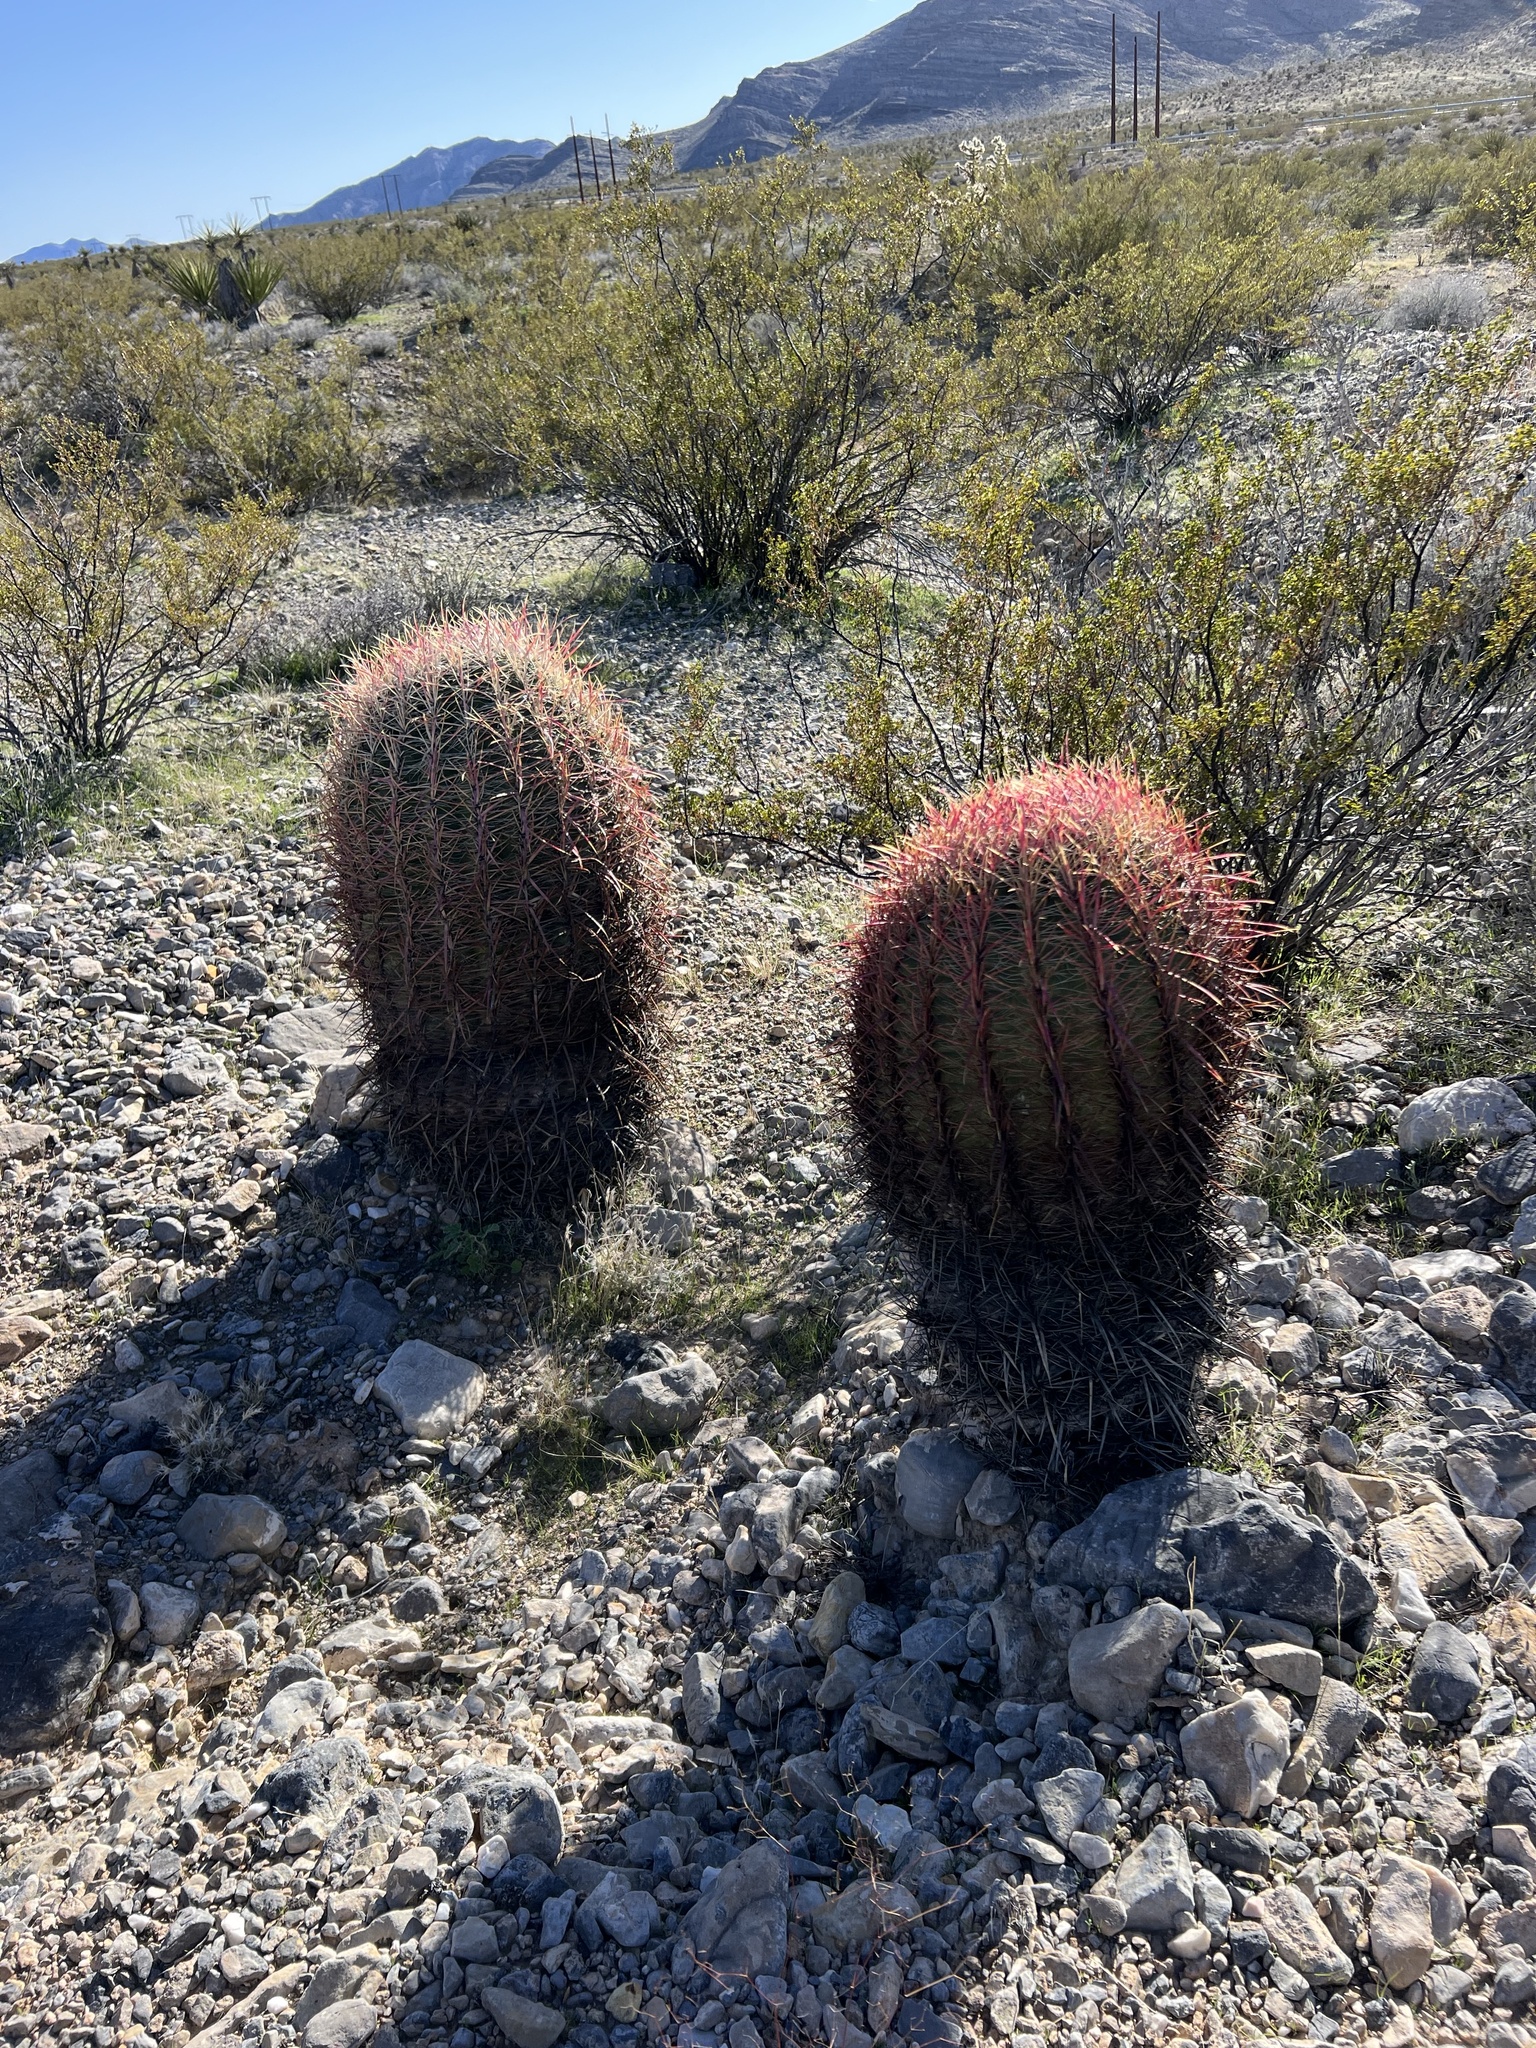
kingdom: Plantae
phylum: Tracheophyta
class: Magnoliopsida
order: Caryophyllales
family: Cactaceae
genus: Ferocactus
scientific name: Ferocactus cylindraceus
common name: California barrel cactus
